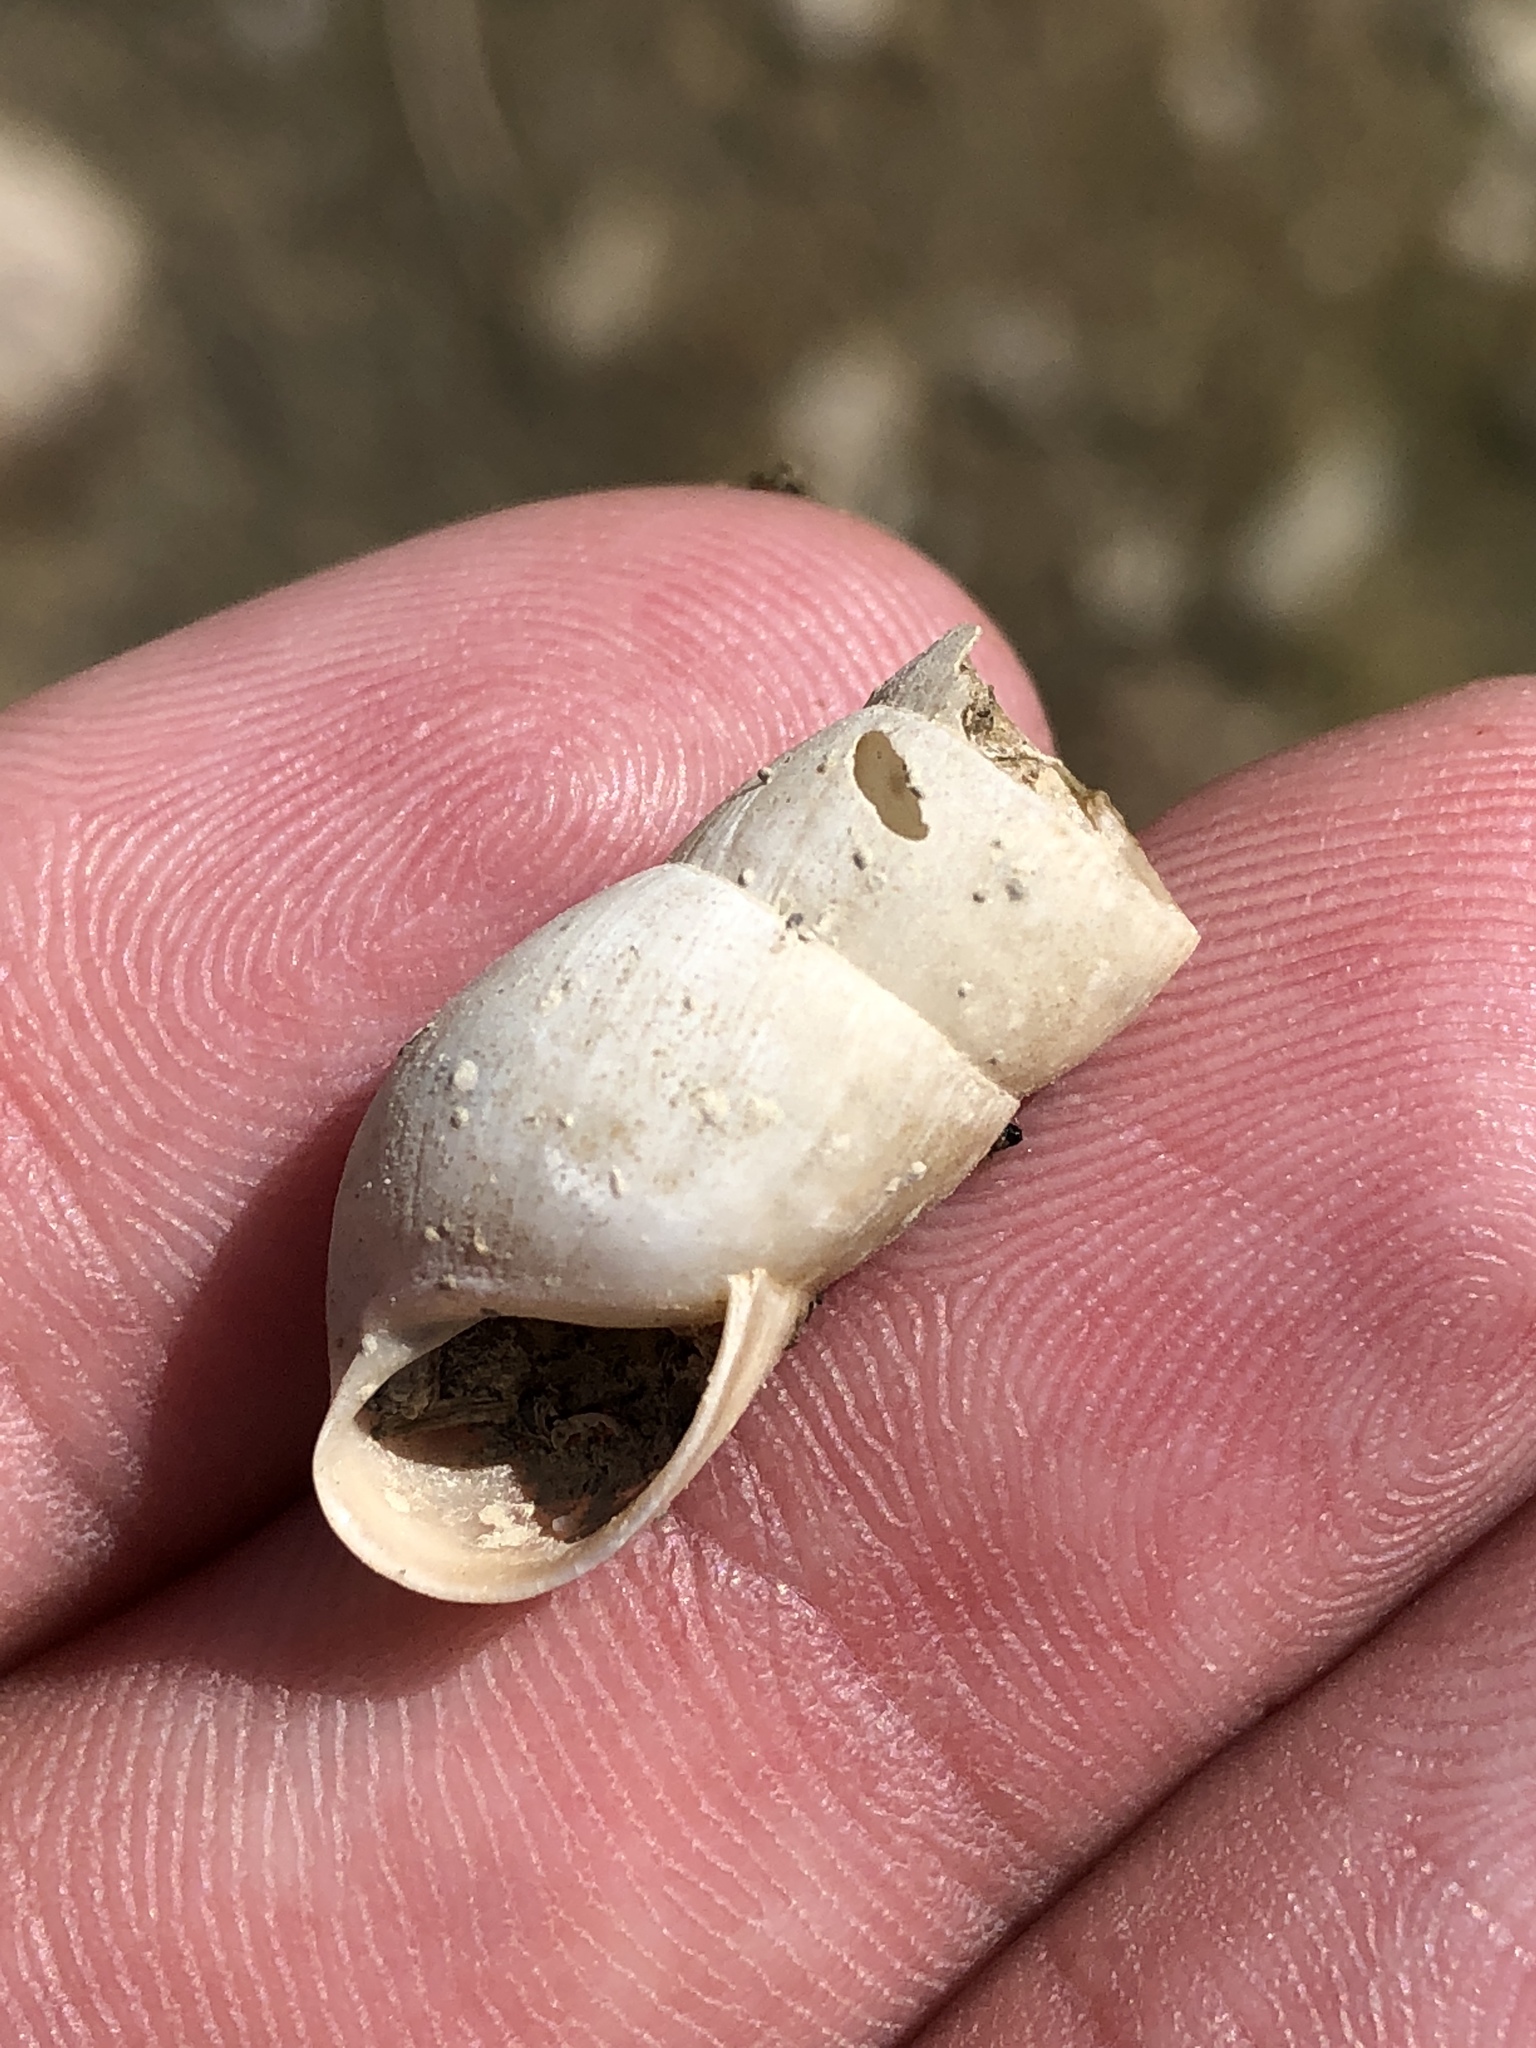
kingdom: Animalia
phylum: Mollusca
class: Gastropoda
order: Stylommatophora
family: Achatinidae
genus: Rumina
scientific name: Rumina decollata
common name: Decollate snail
